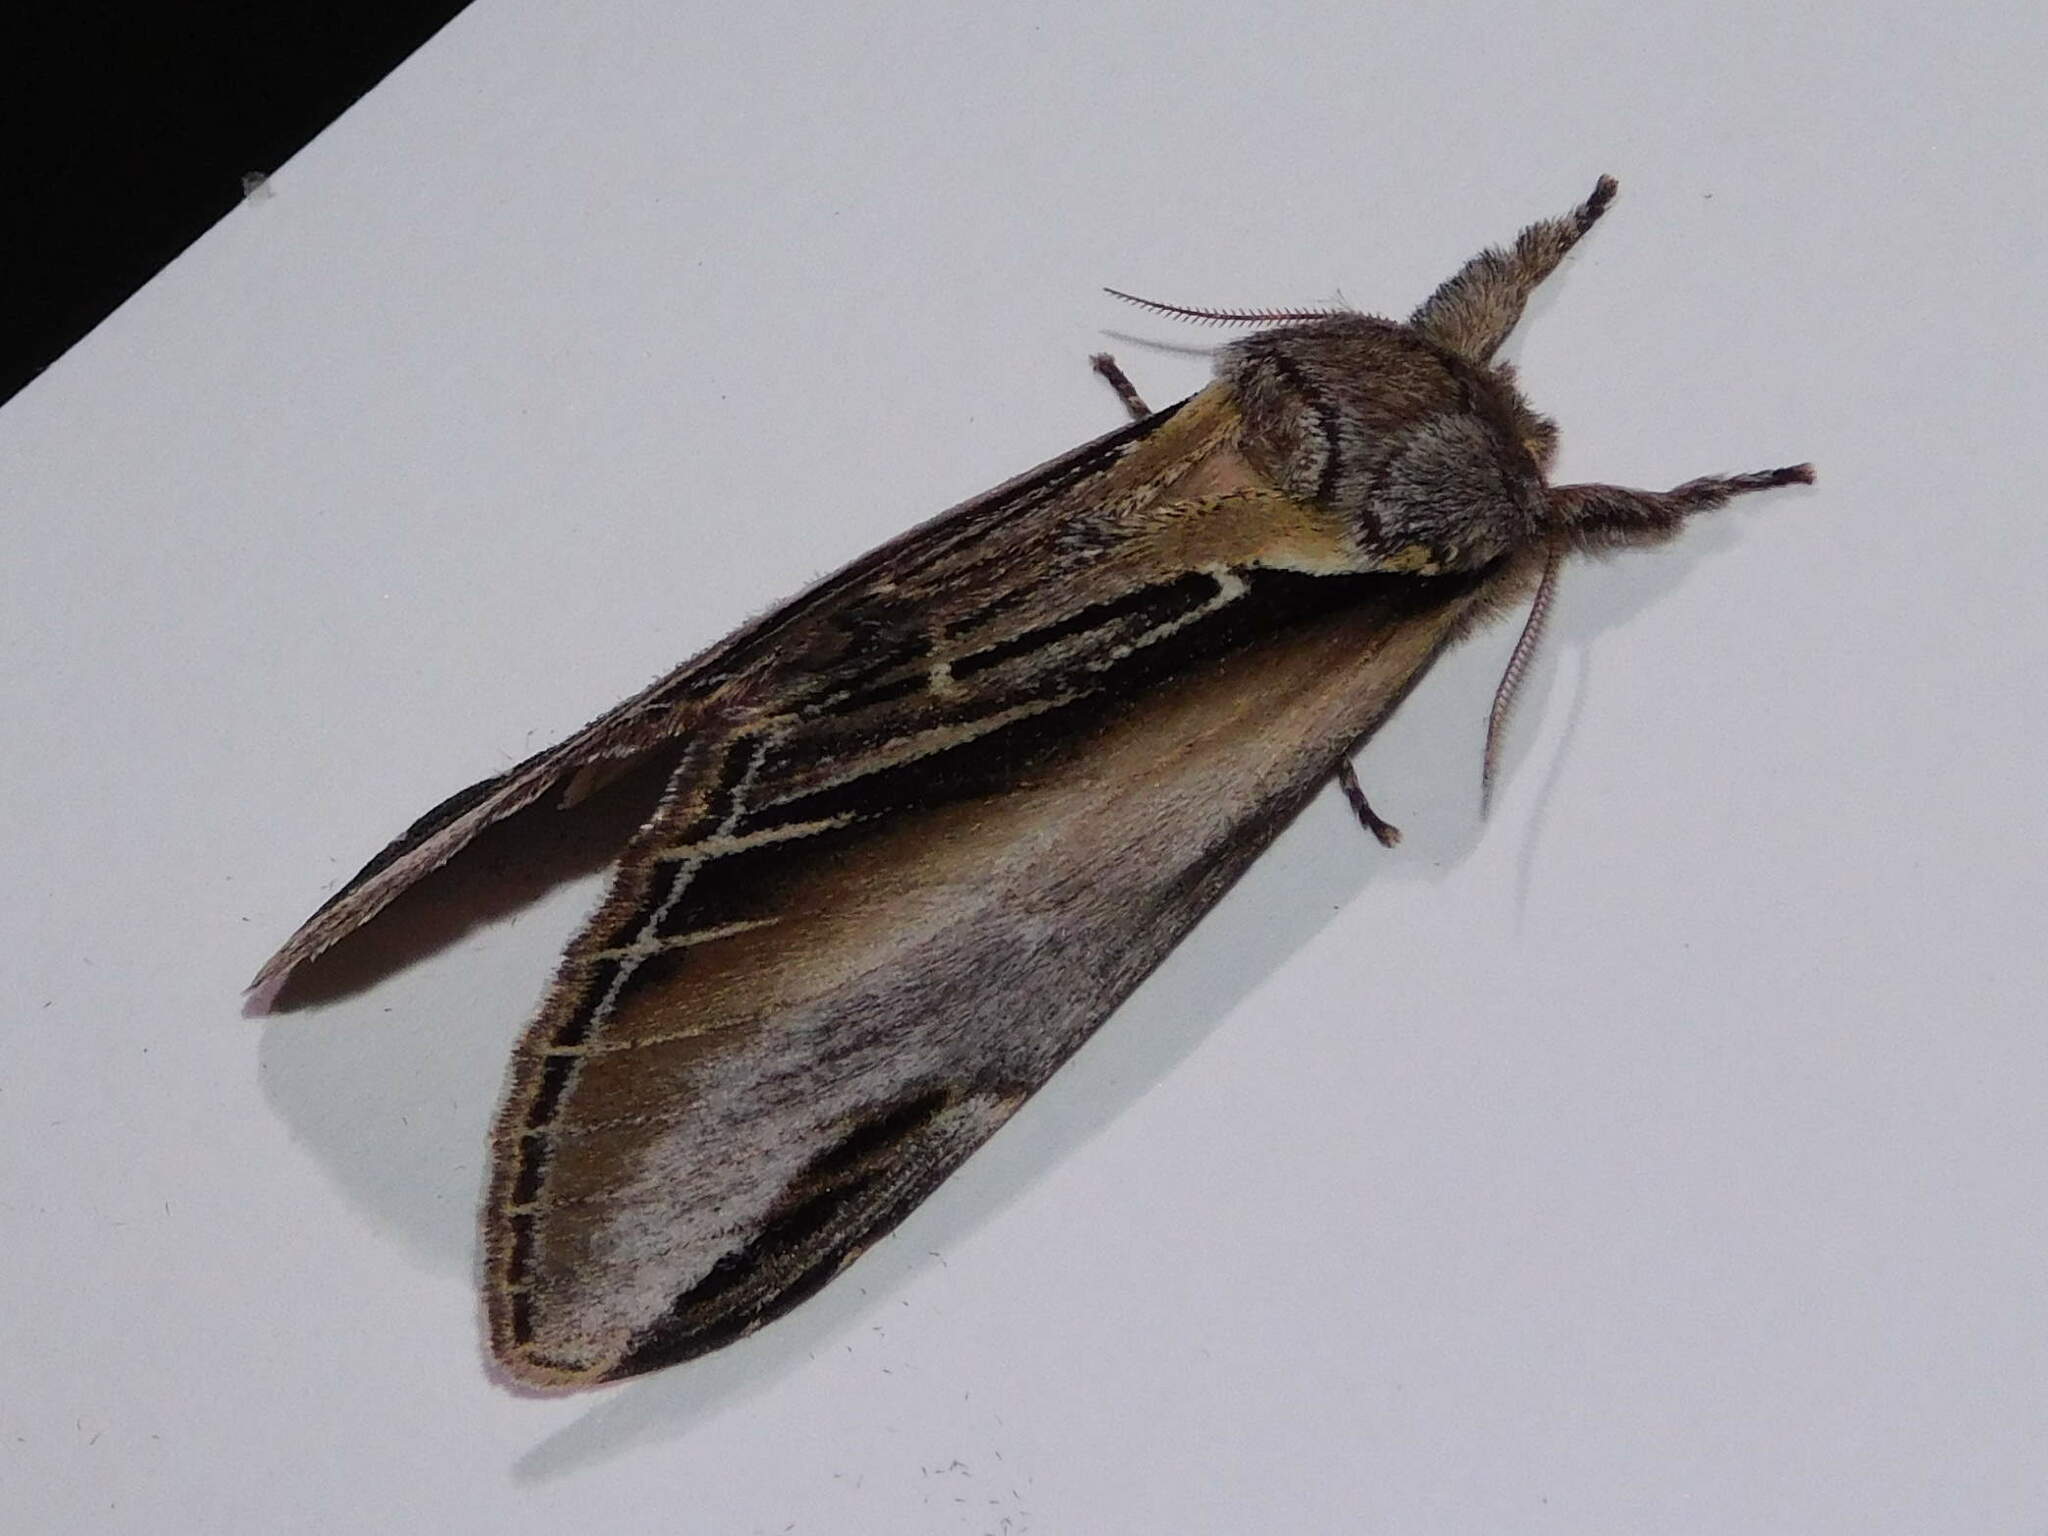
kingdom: Animalia
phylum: Arthropoda
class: Insecta
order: Lepidoptera
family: Notodontidae
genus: Pheosia
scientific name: Pheosia tremula
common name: Swallow prominent
